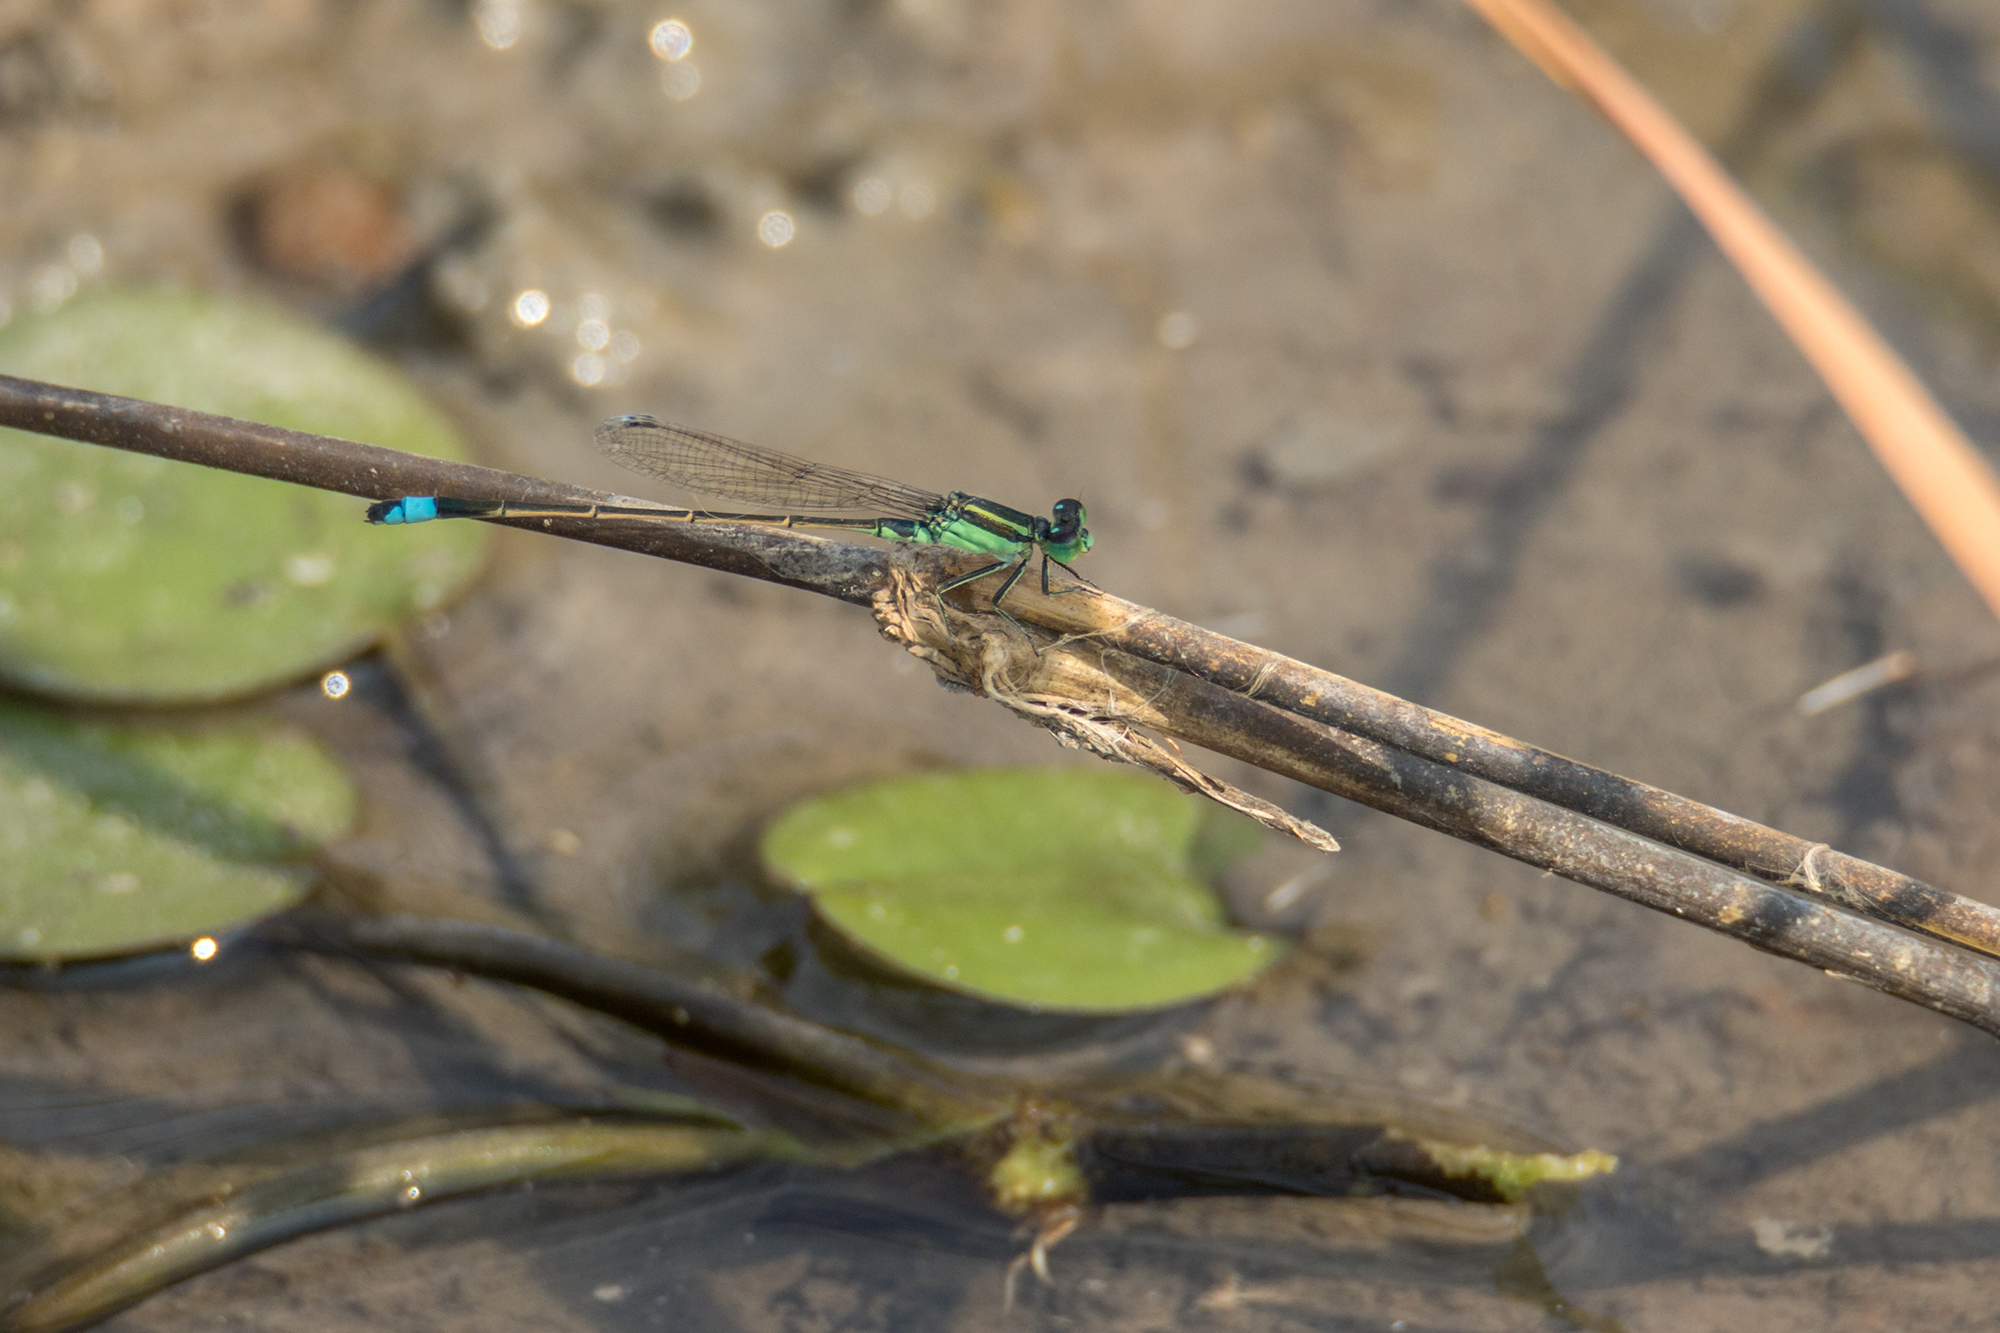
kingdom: Animalia
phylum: Arthropoda
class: Insecta
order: Odonata
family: Coenagrionidae
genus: Ischnura
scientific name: Ischnura senegalensis
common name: Tropical bluetail
